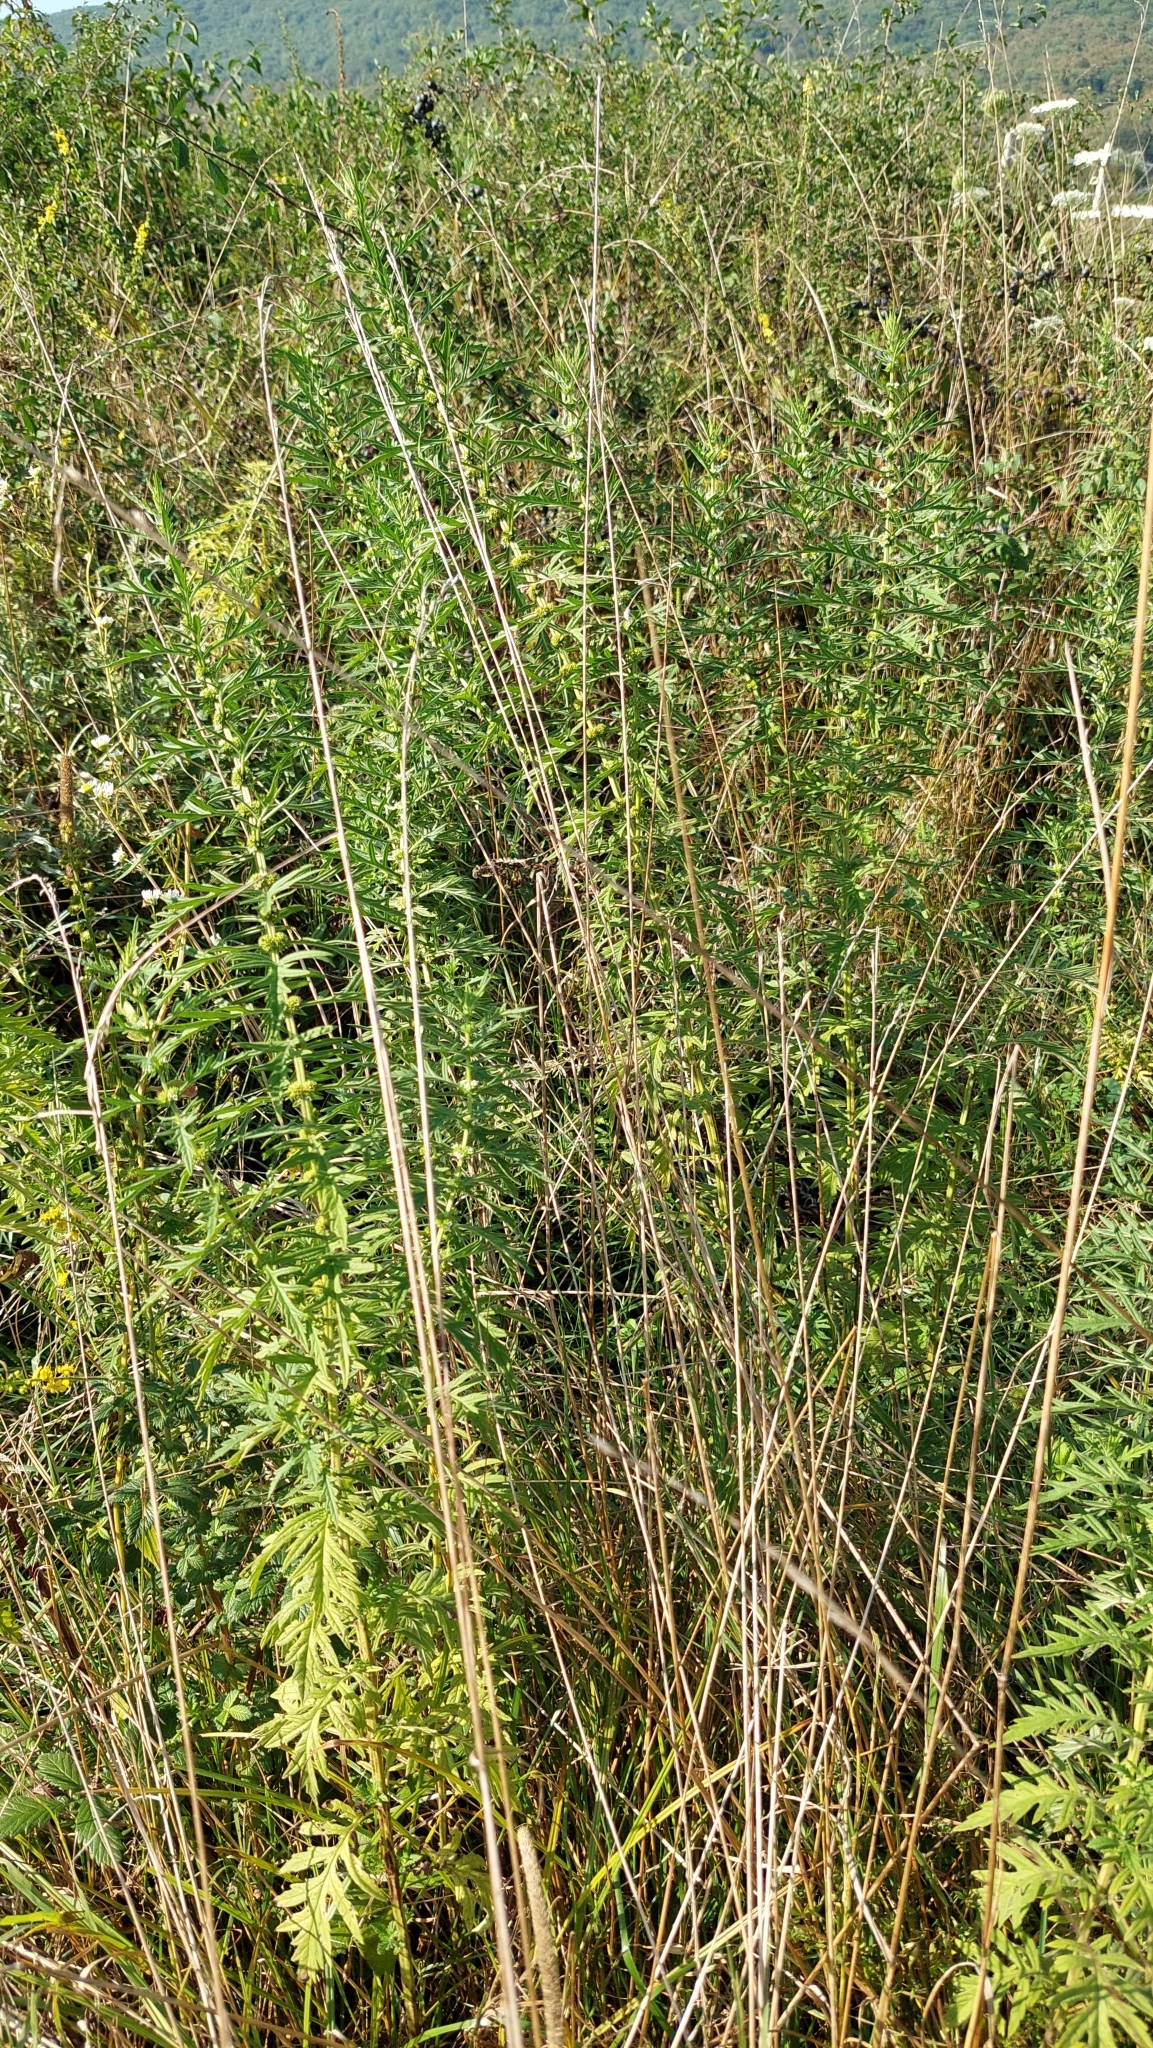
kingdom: Plantae
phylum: Tracheophyta
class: Magnoliopsida
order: Lamiales
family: Lamiaceae
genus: Lycopus
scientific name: Lycopus exaltatus
